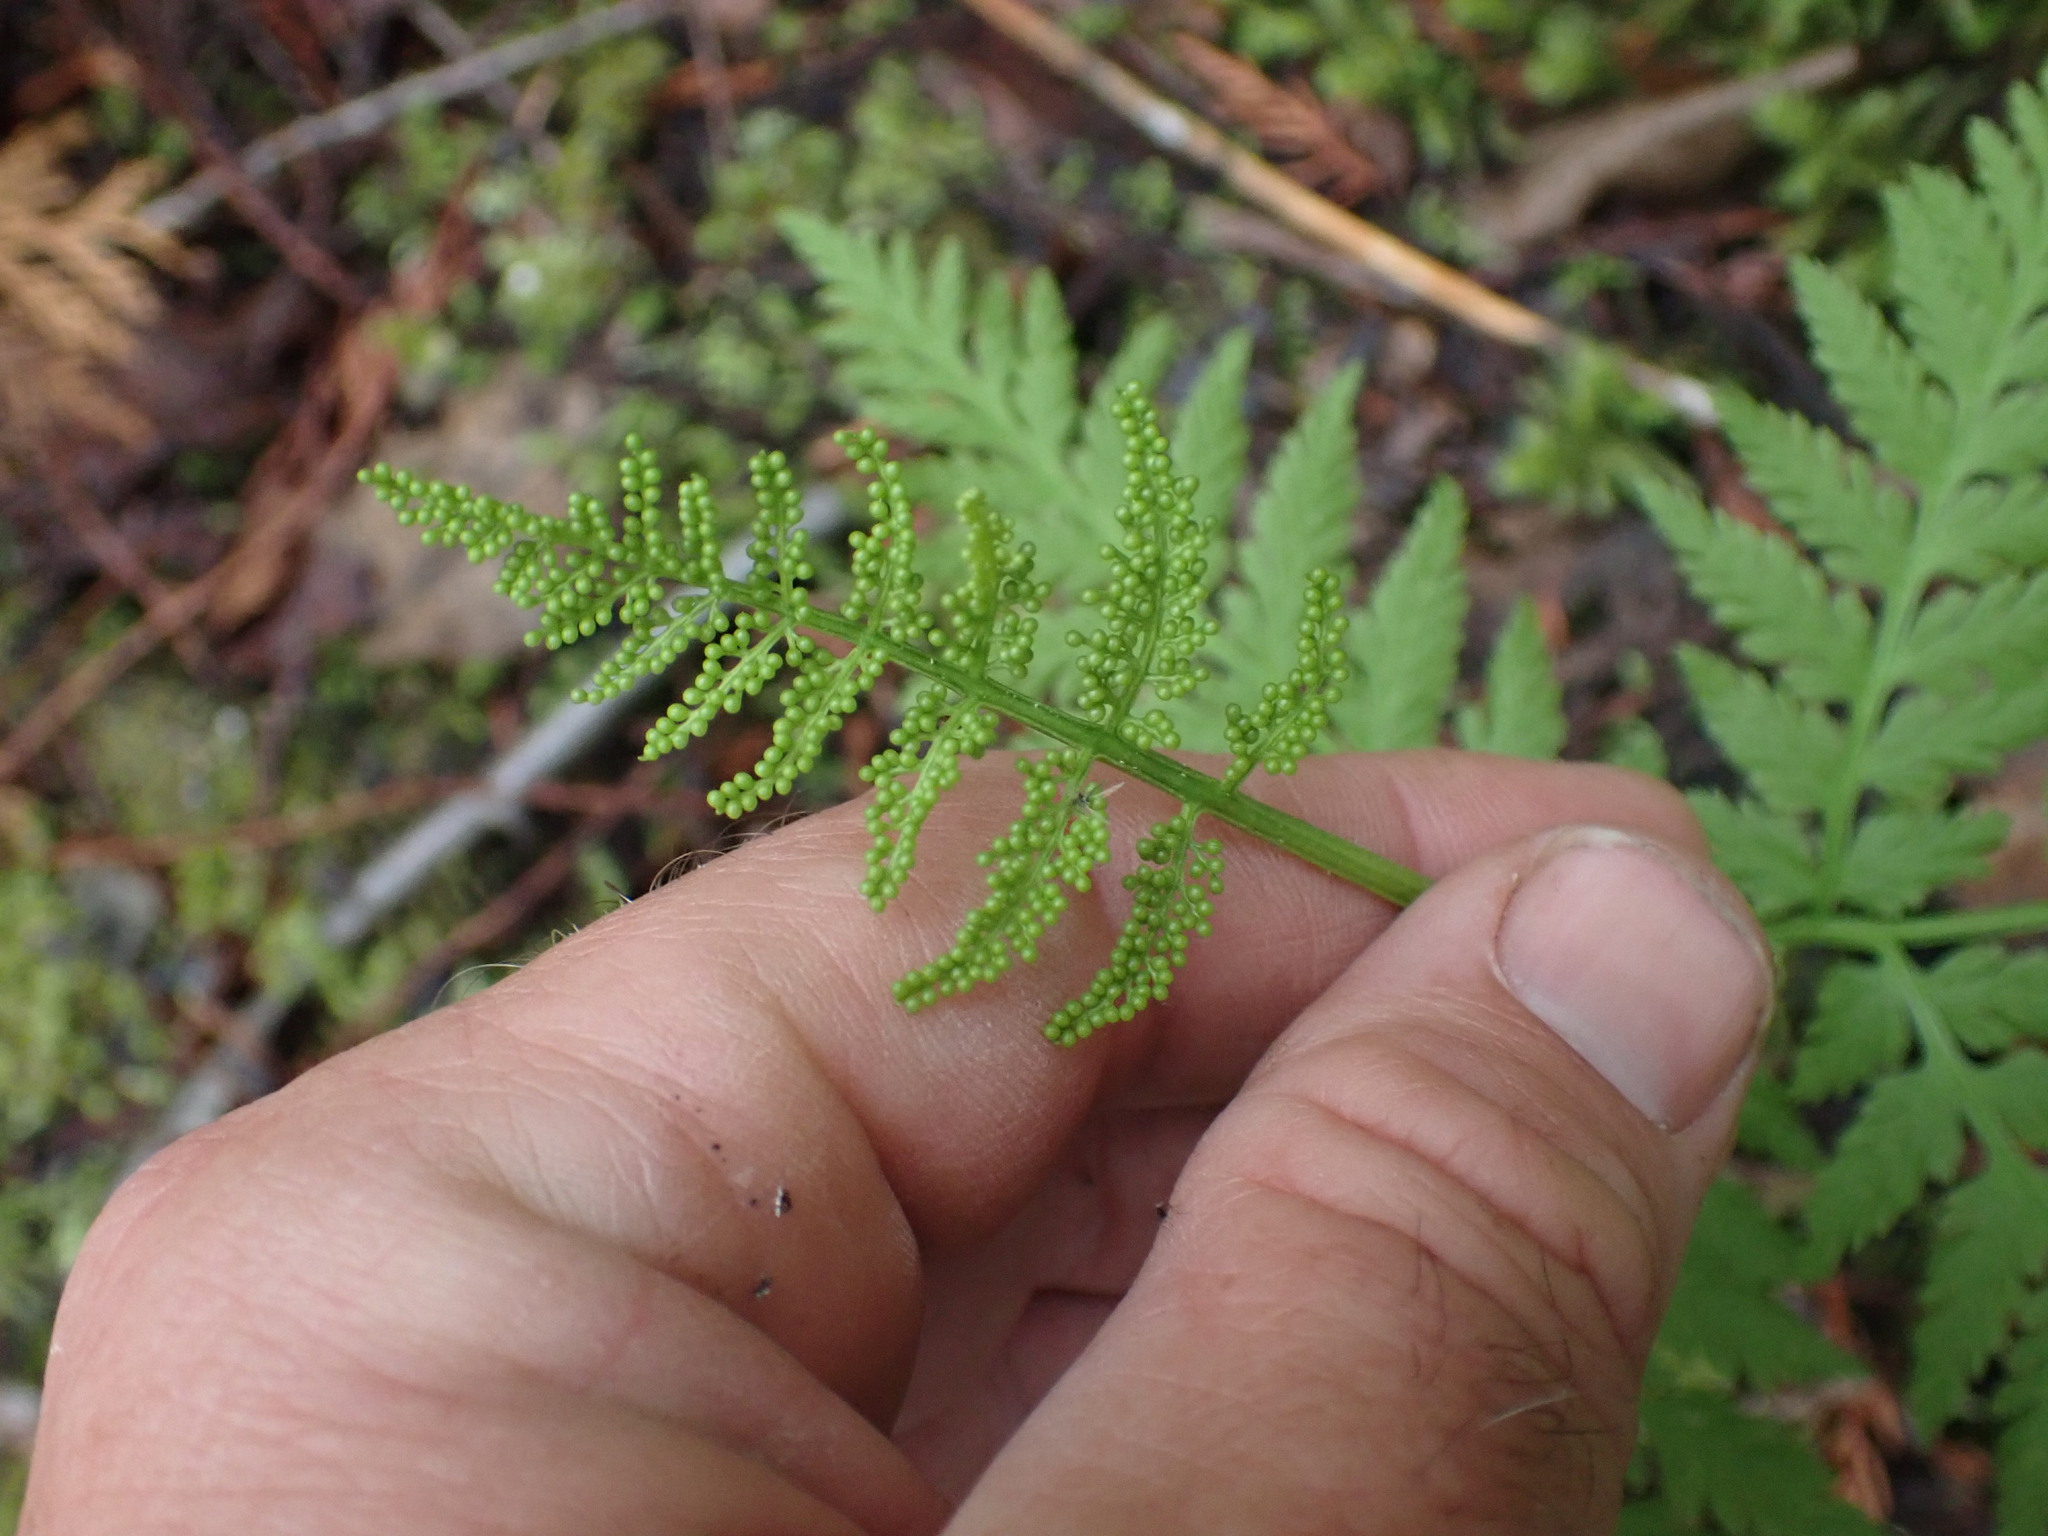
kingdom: Plantae
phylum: Tracheophyta
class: Polypodiopsida
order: Ophioglossales
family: Ophioglossaceae
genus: Botrypus
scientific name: Botrypus virginianus
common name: Common grapefern
